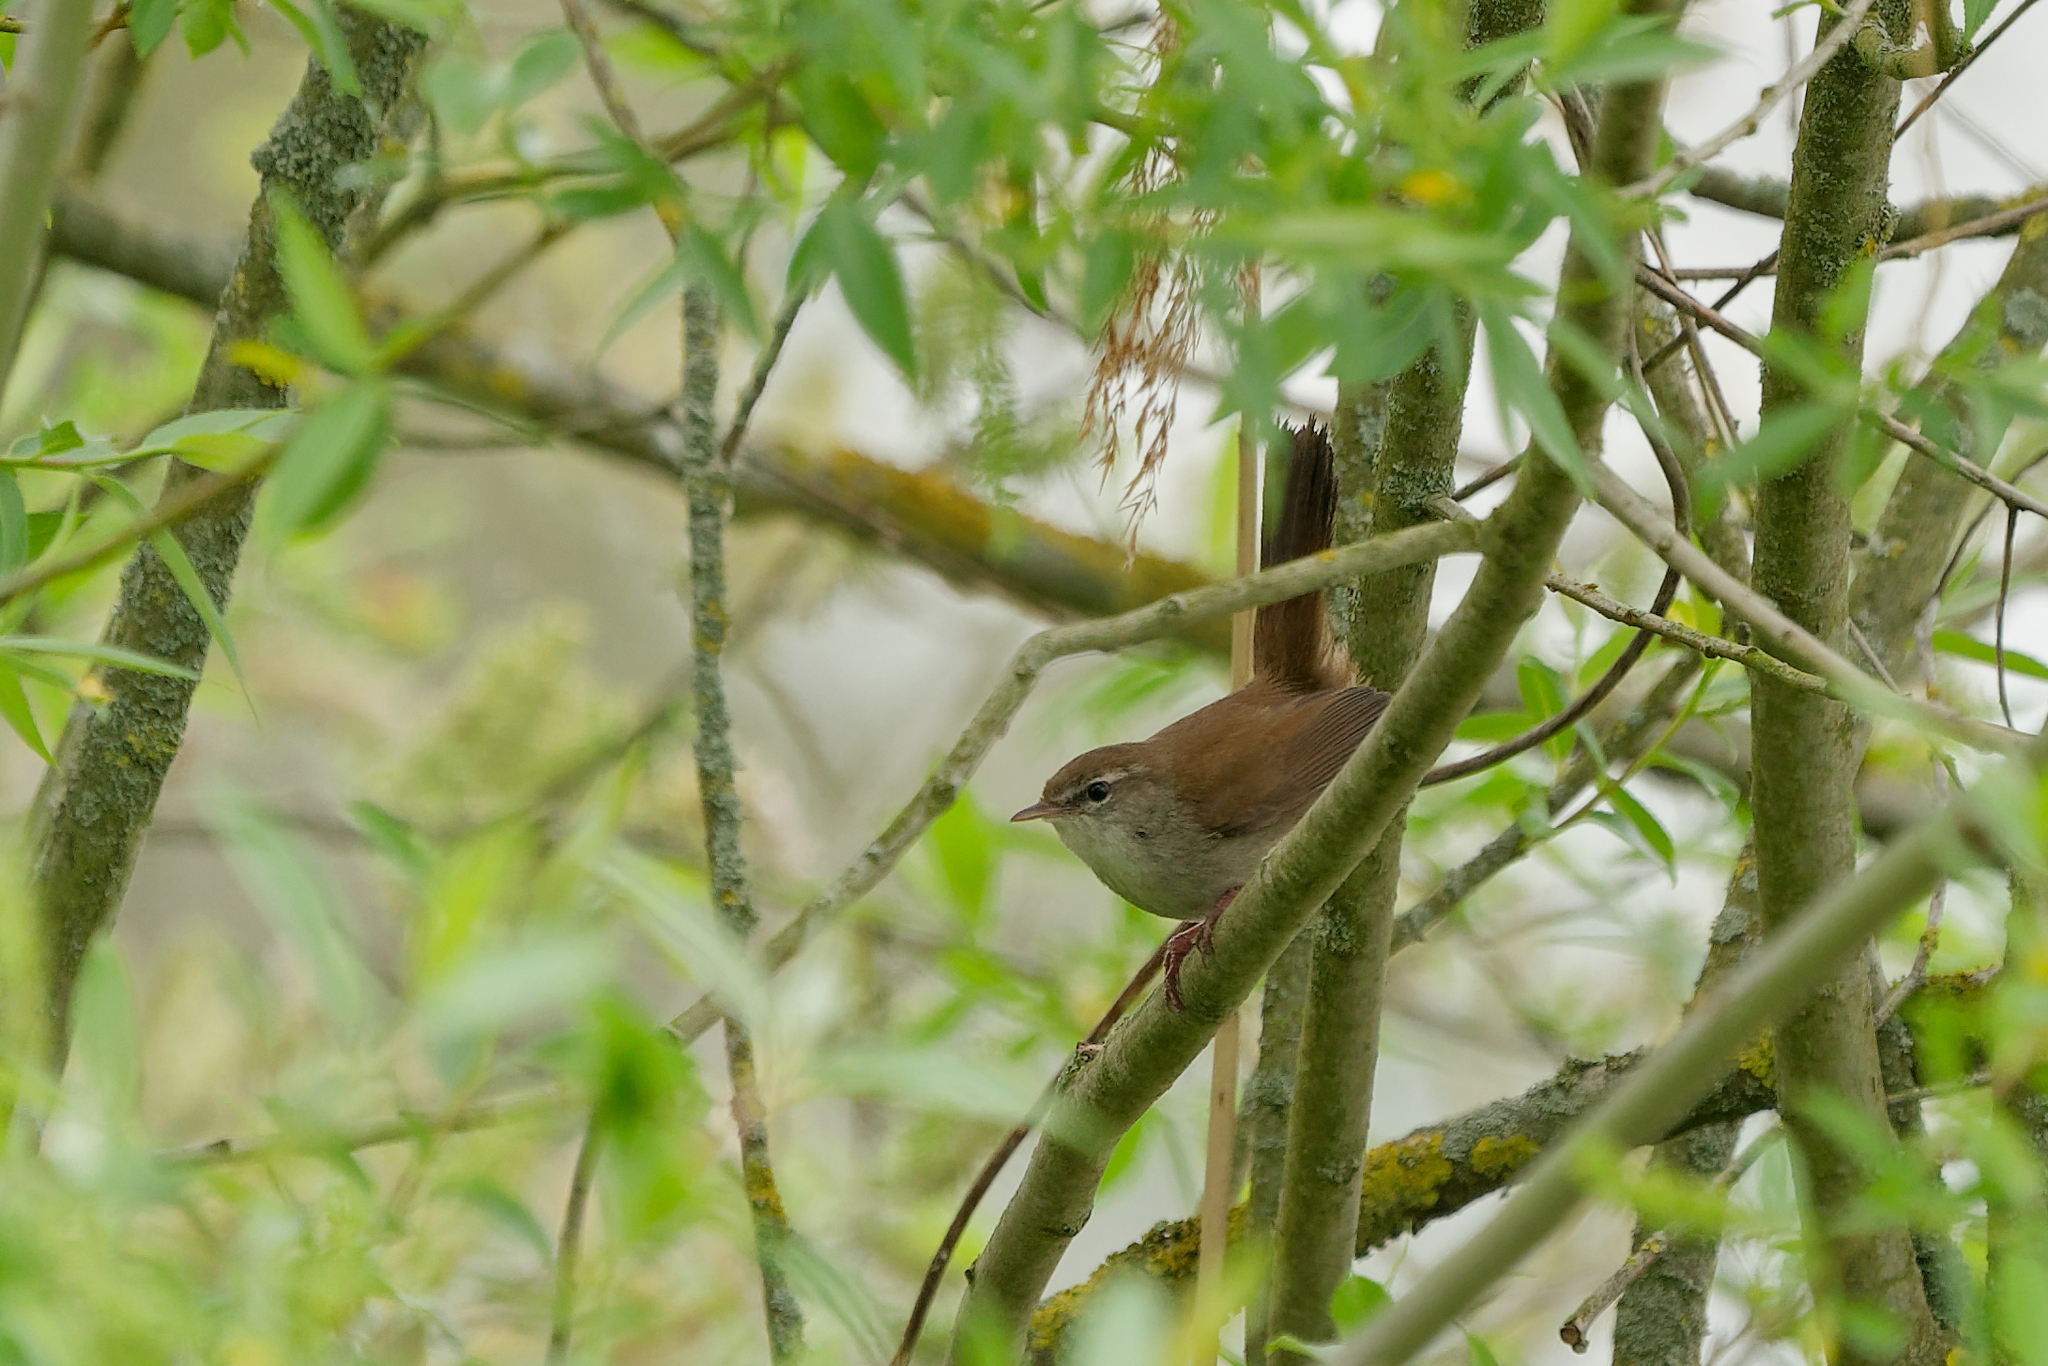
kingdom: Animalia
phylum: Chordata
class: Aves
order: Passeriformes
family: Cettiidae
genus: Cettia
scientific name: Cettia cetti
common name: Cetti's warbler
